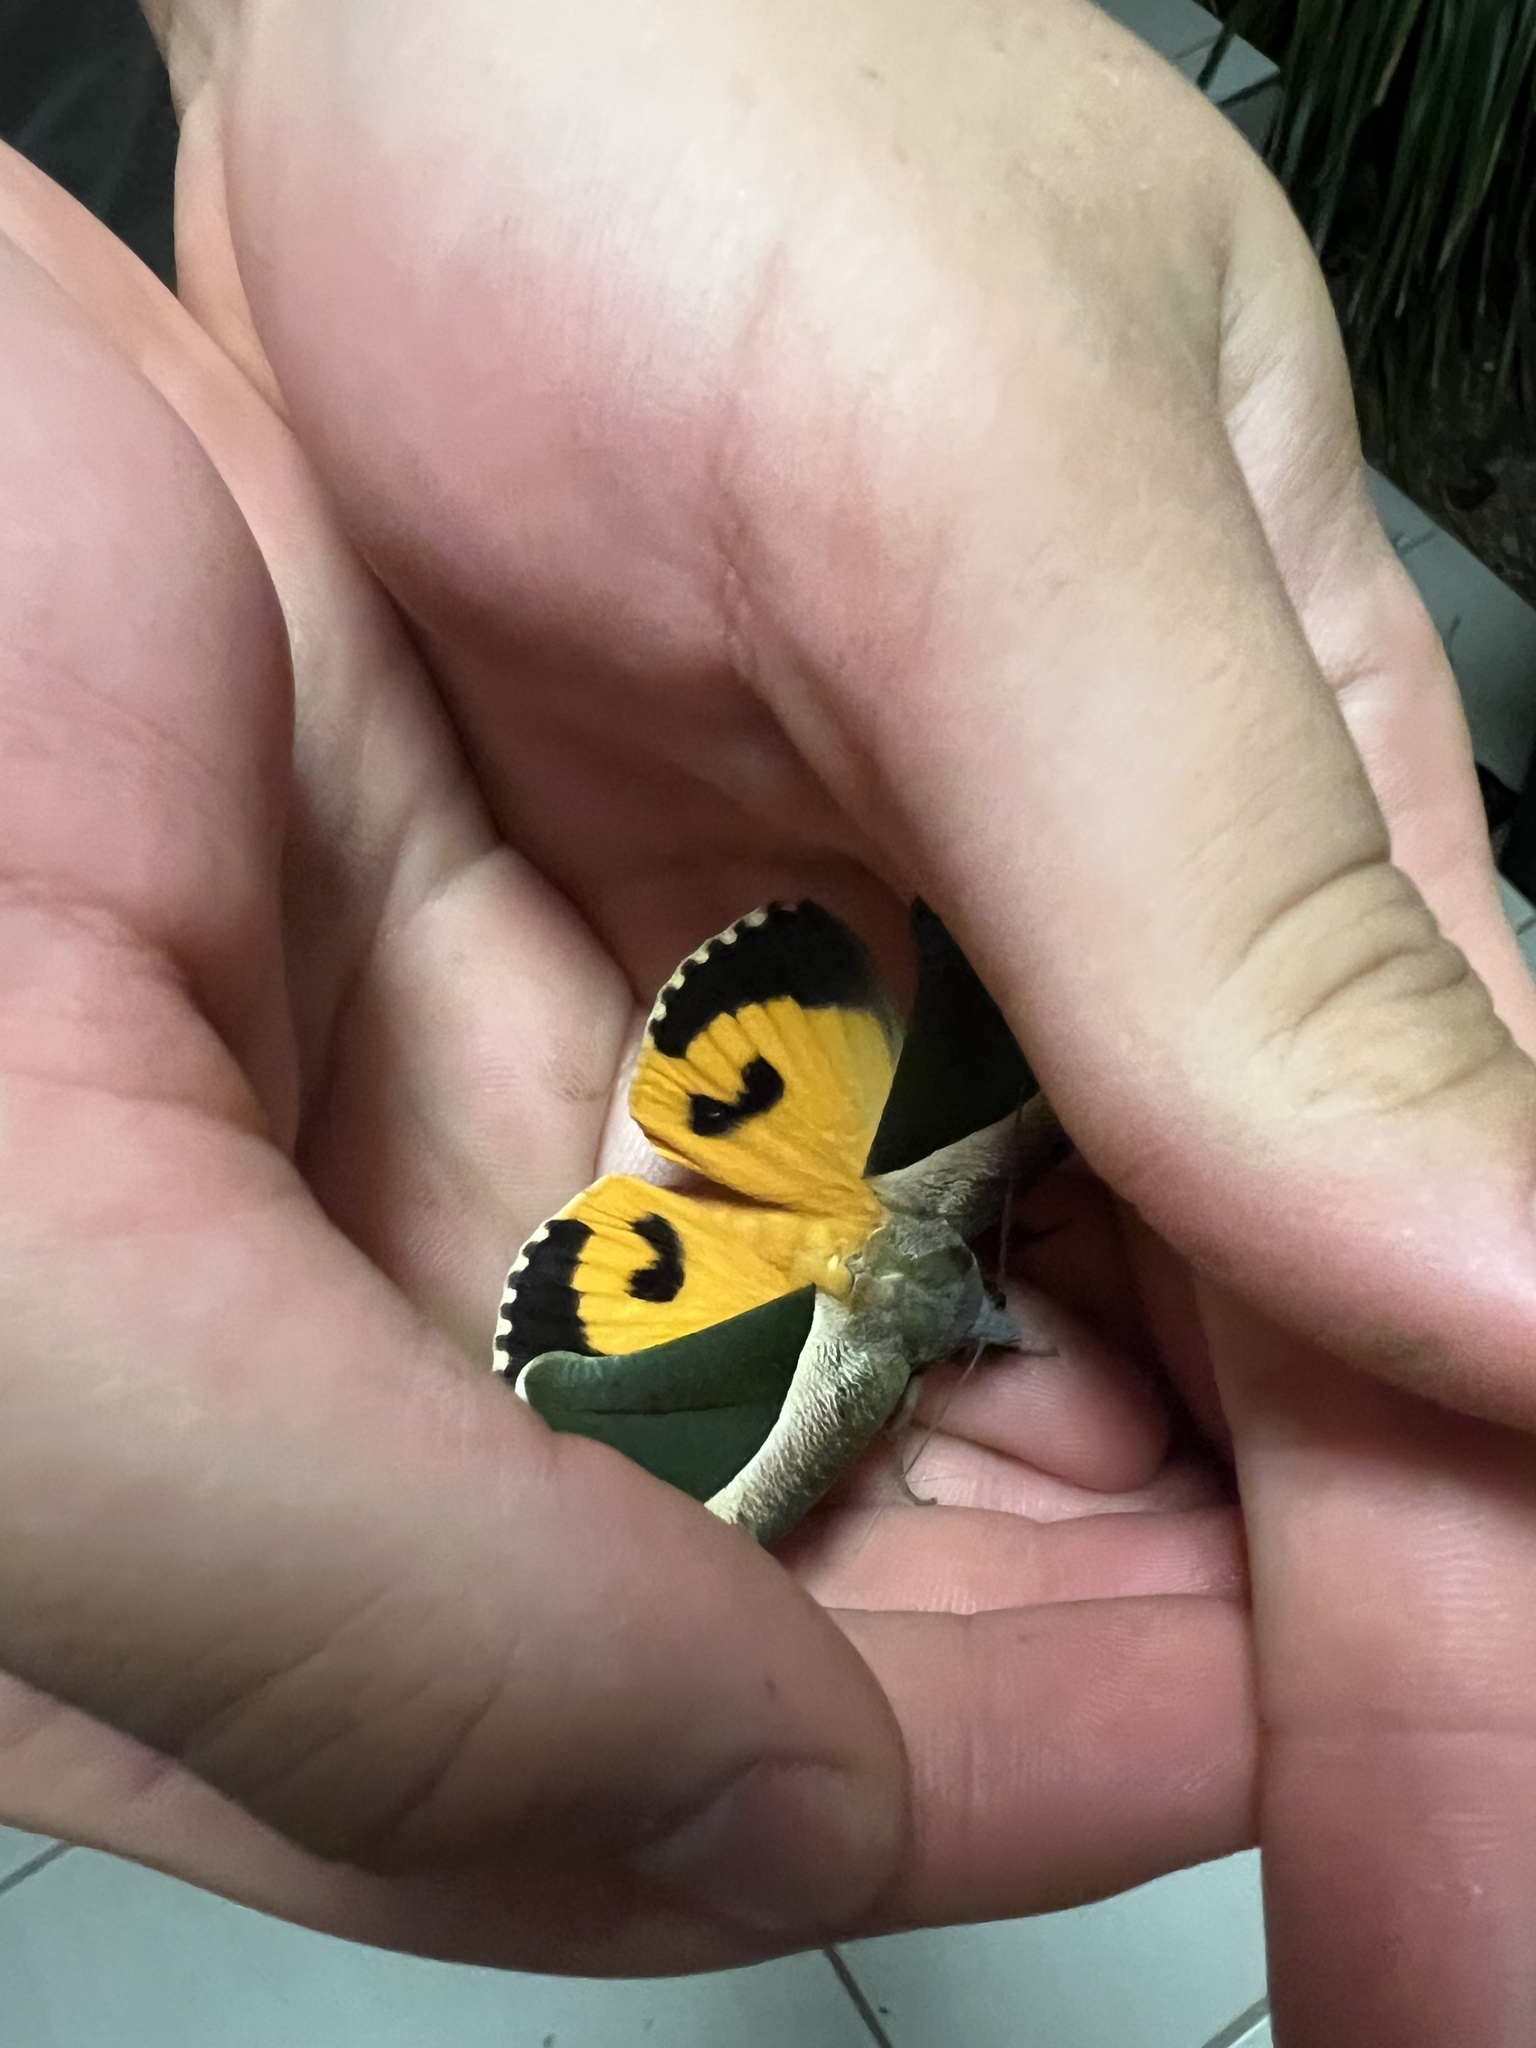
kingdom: Animalia
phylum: Arthropoda
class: Insecta
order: Lepidoptera
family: Erebidae
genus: Eudocima
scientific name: Eudocima salaminia
